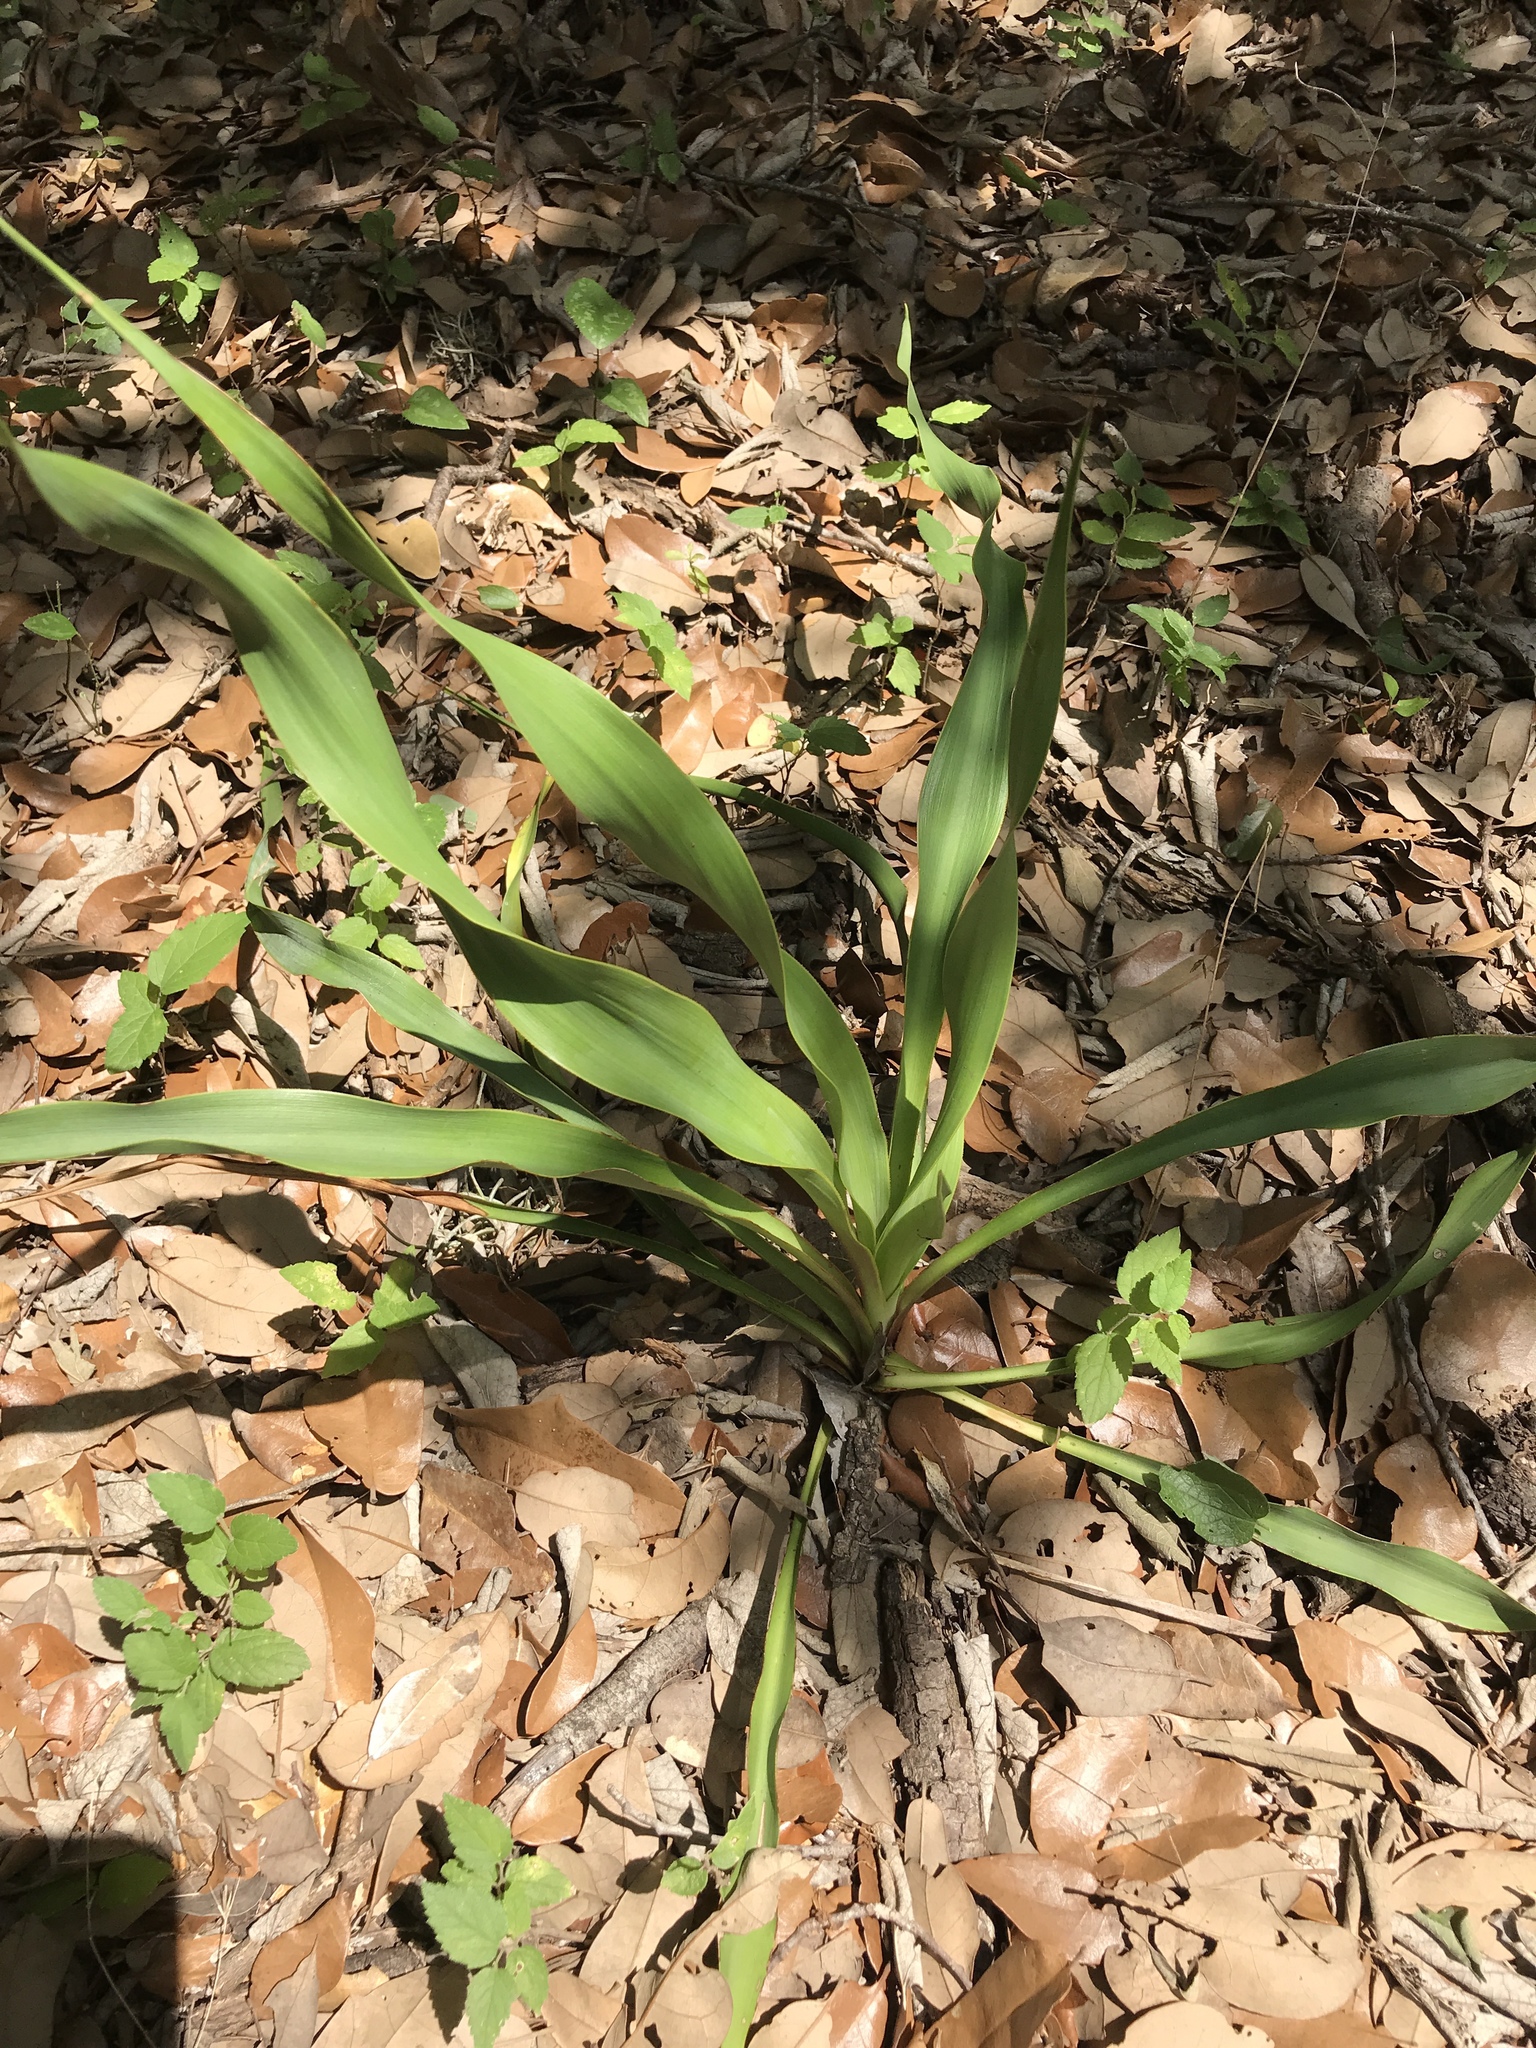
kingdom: Plantae
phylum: Tracheophyta
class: Liliopsida
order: Asparagales
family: Asparagaceae
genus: Yucca
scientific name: Yucca rupicola
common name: Twisted-leaf spanish-dagger
